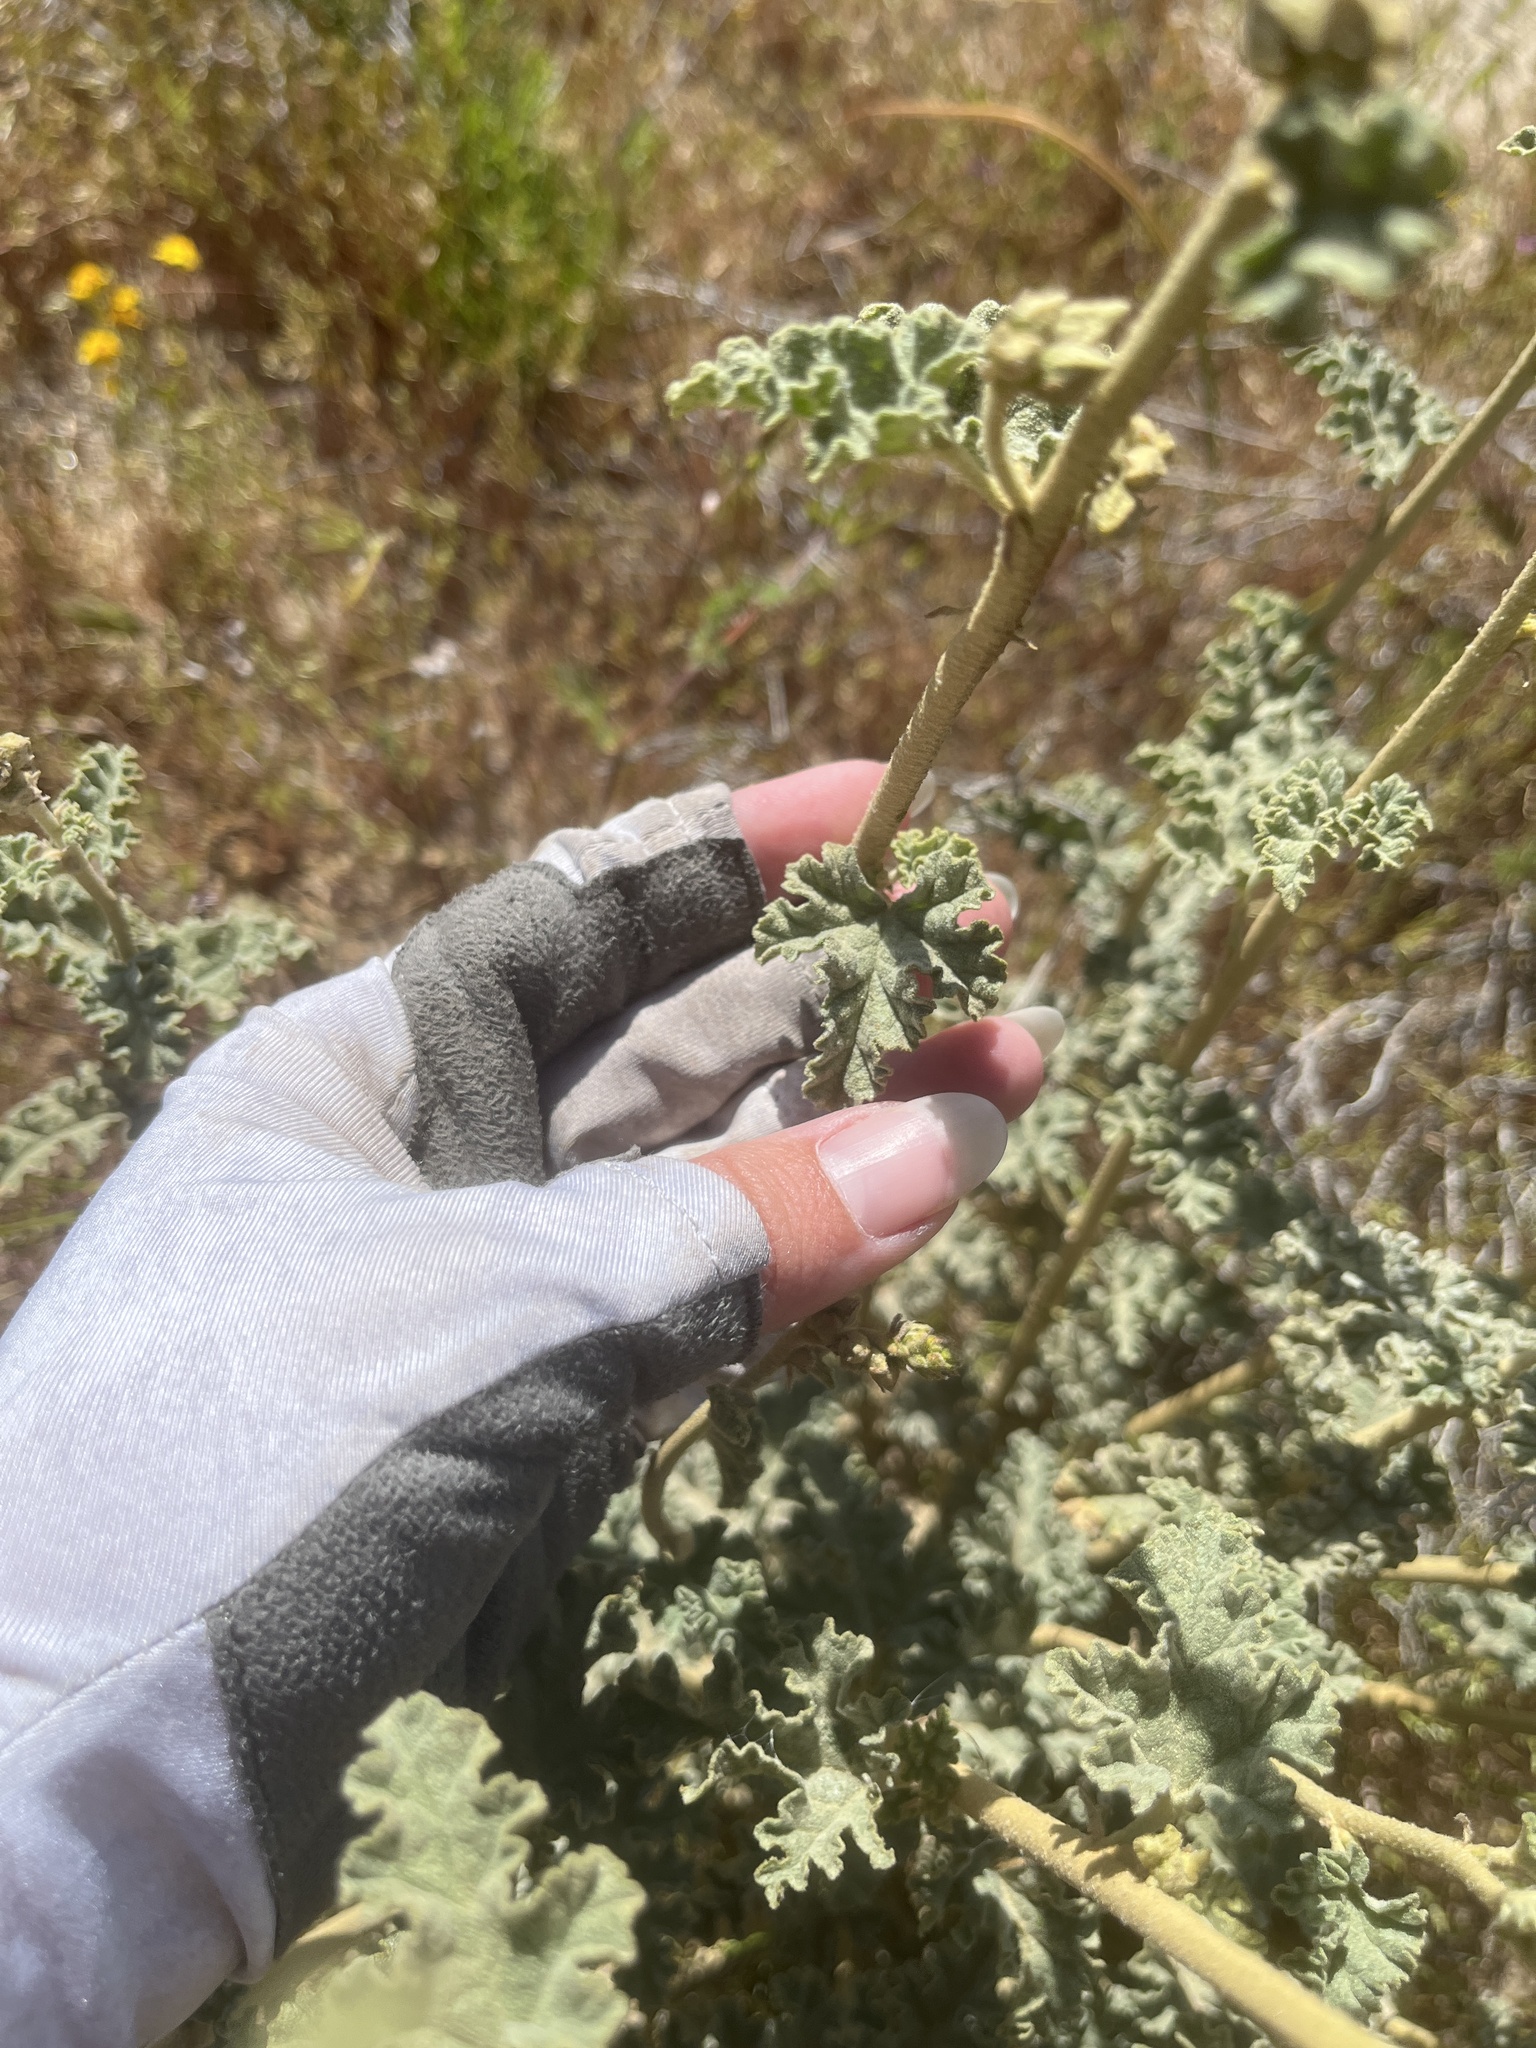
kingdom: Plantae
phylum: Tracheophyta
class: Magnoliopsida
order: Malvales
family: Malvaceae
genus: Sphaeralcea
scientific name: Sphaeralcea ambigua
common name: Apricot globe-mallow
